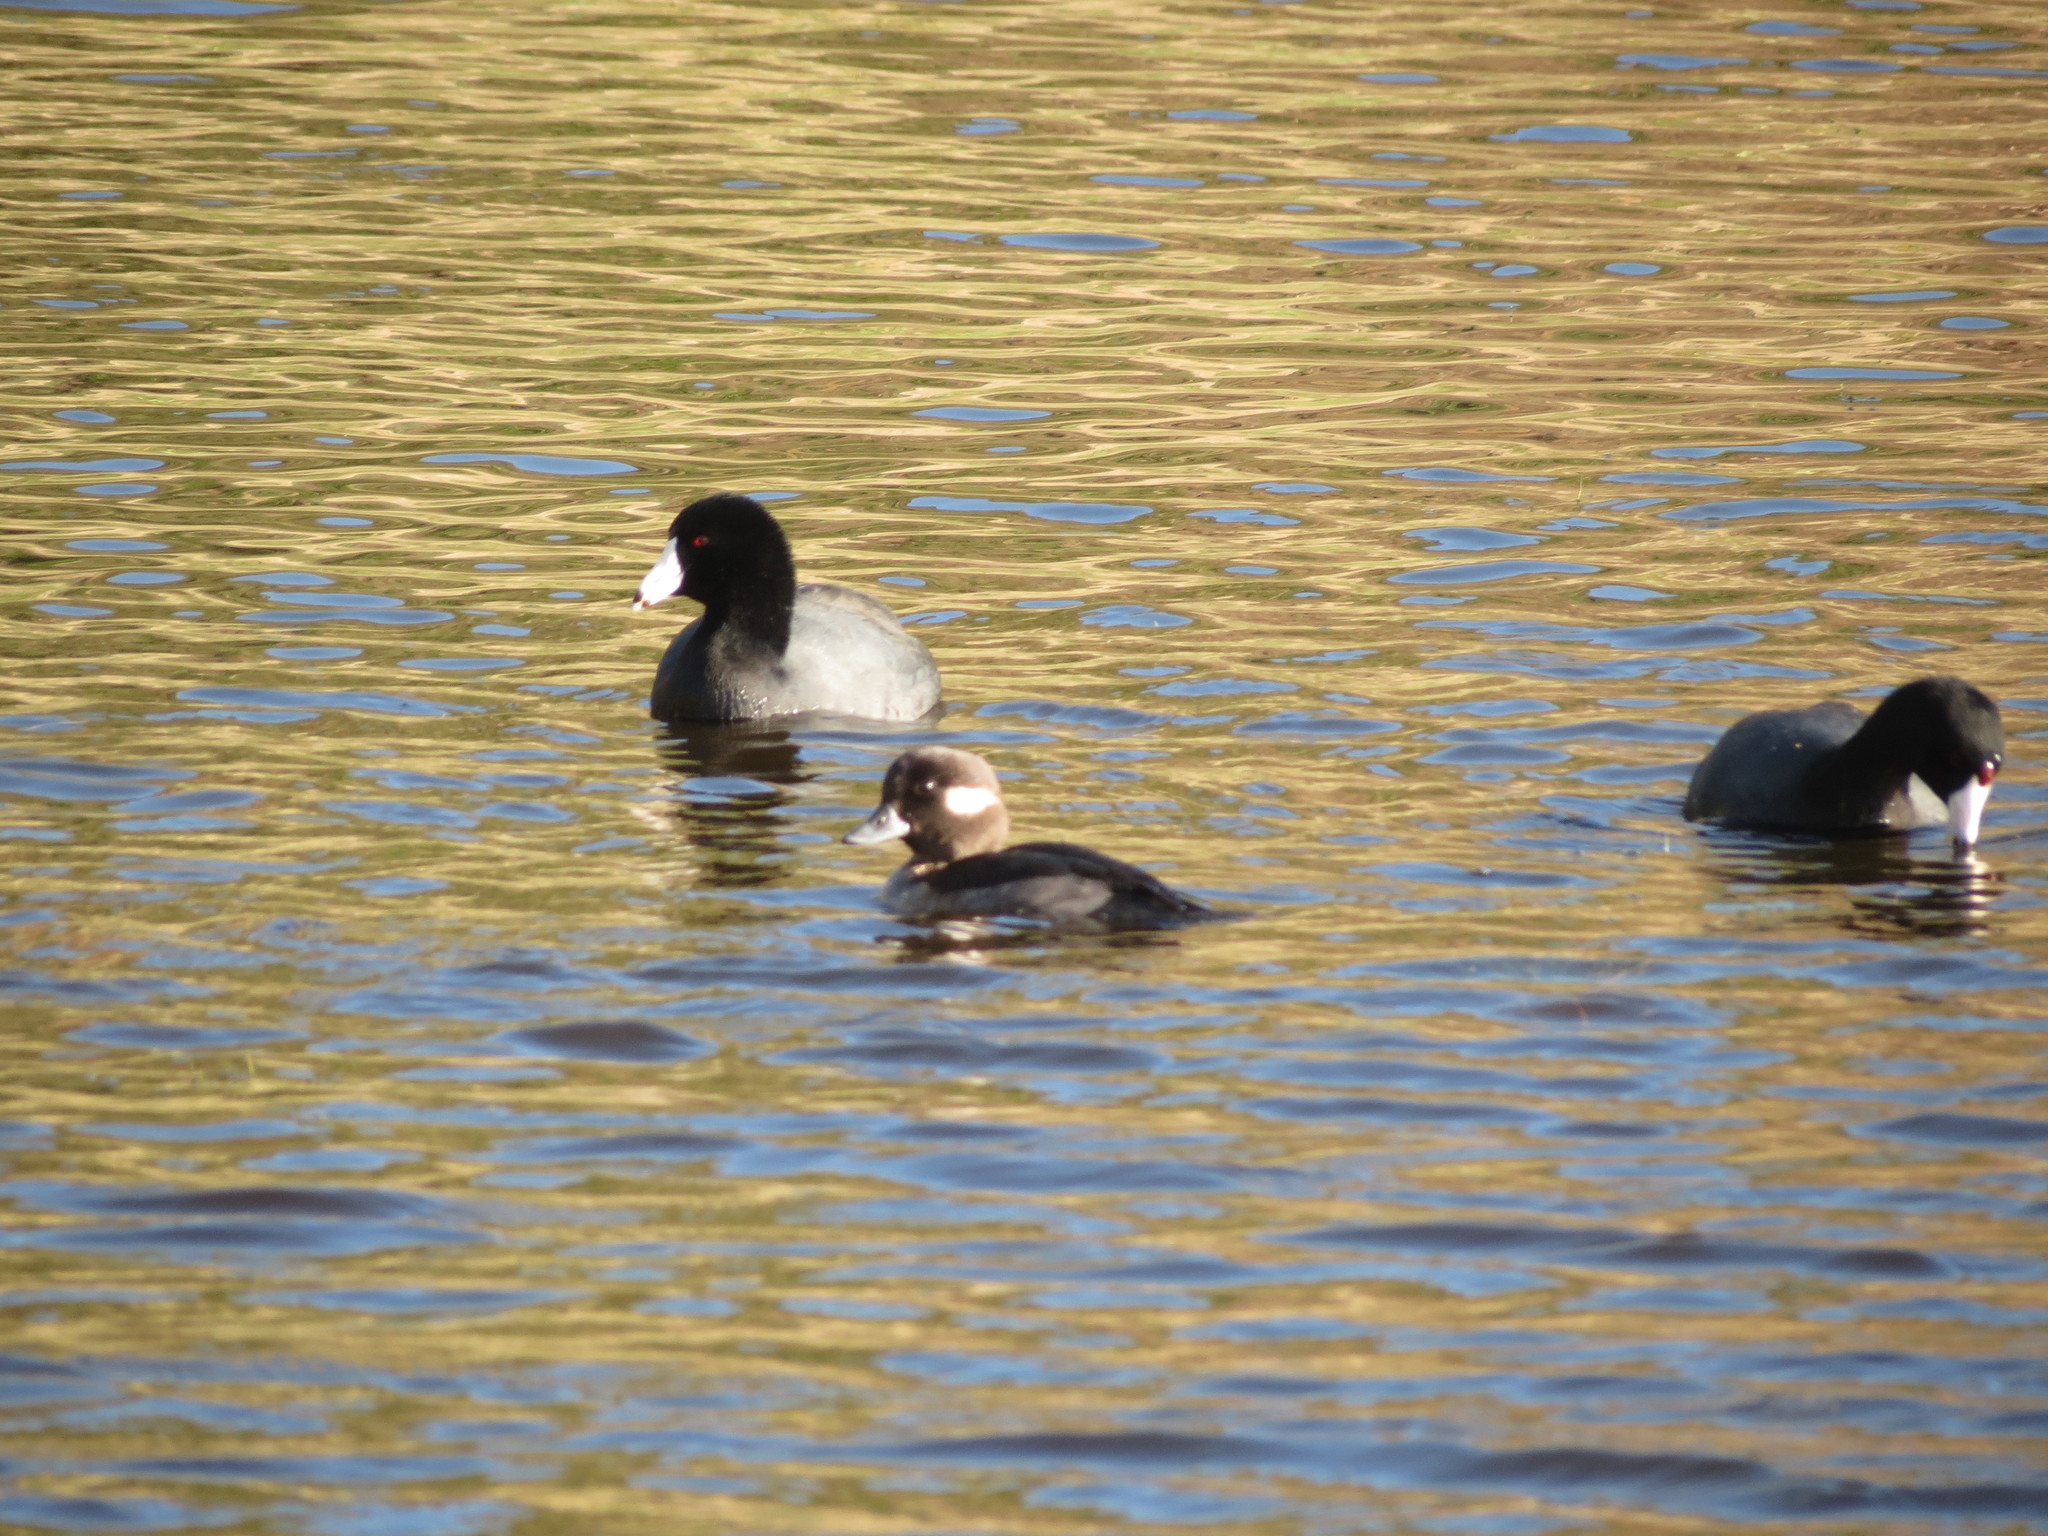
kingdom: Animalia
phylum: Chordata
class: Aves
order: Gruiformes
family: Rallidae
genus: Fulica
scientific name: Fulica americana
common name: American coot
